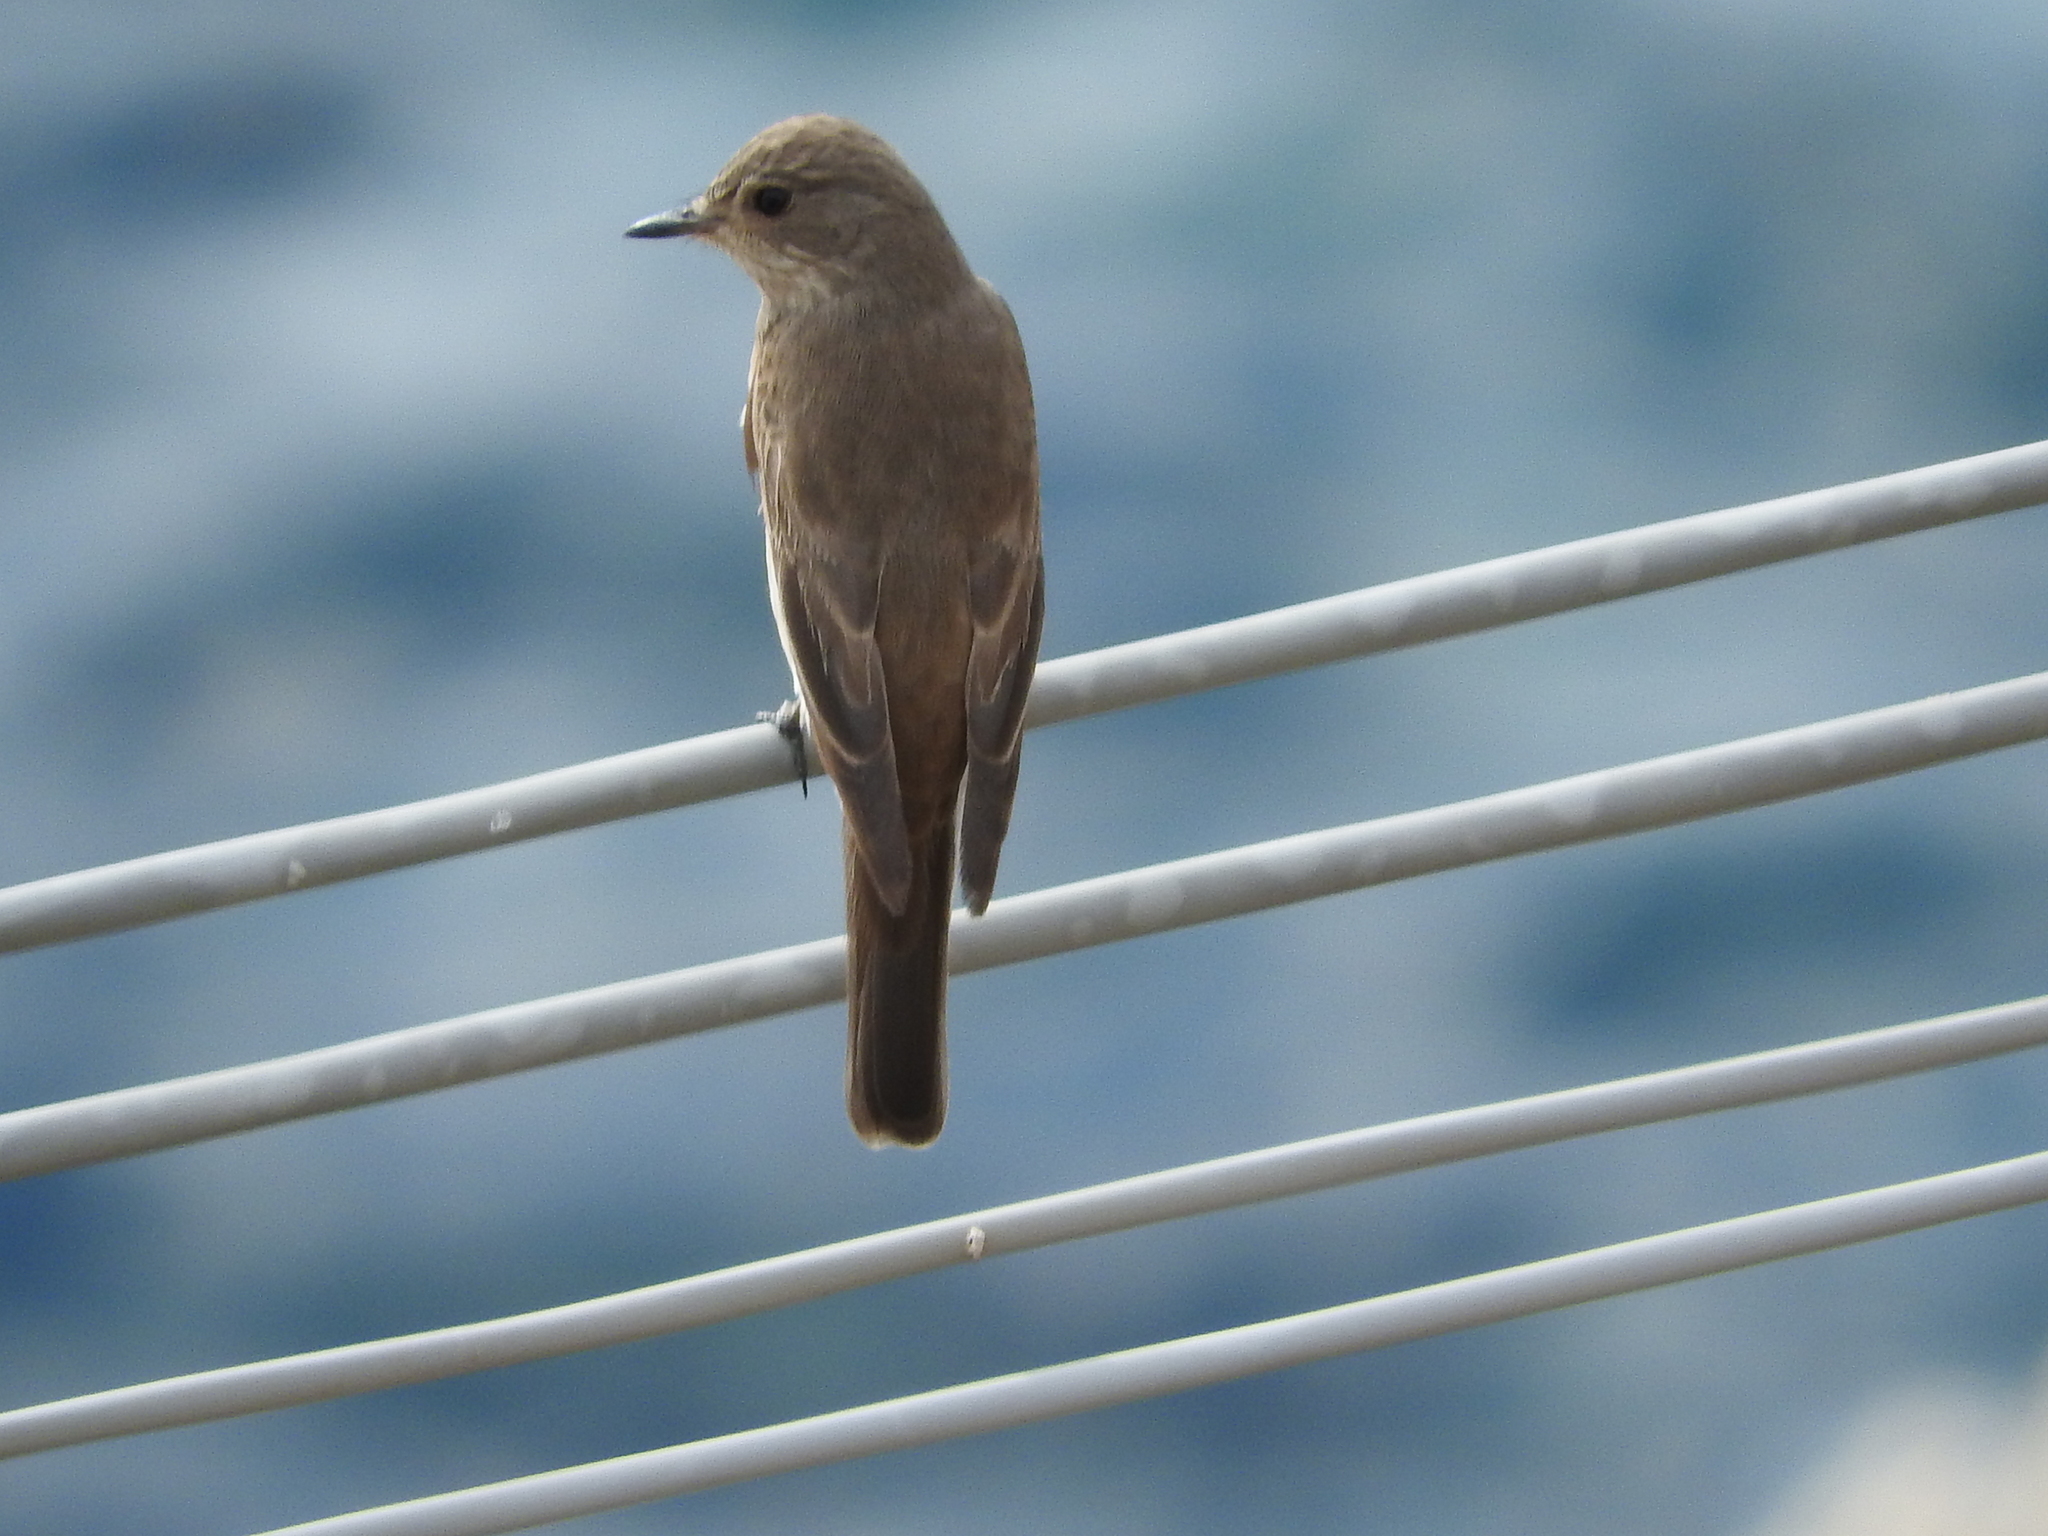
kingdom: Animalia
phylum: Chordata
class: Aves
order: Passeriformes
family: Muscicapidae
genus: Muscicapa
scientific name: Muscicapa striata
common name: Spotted flycatcher
